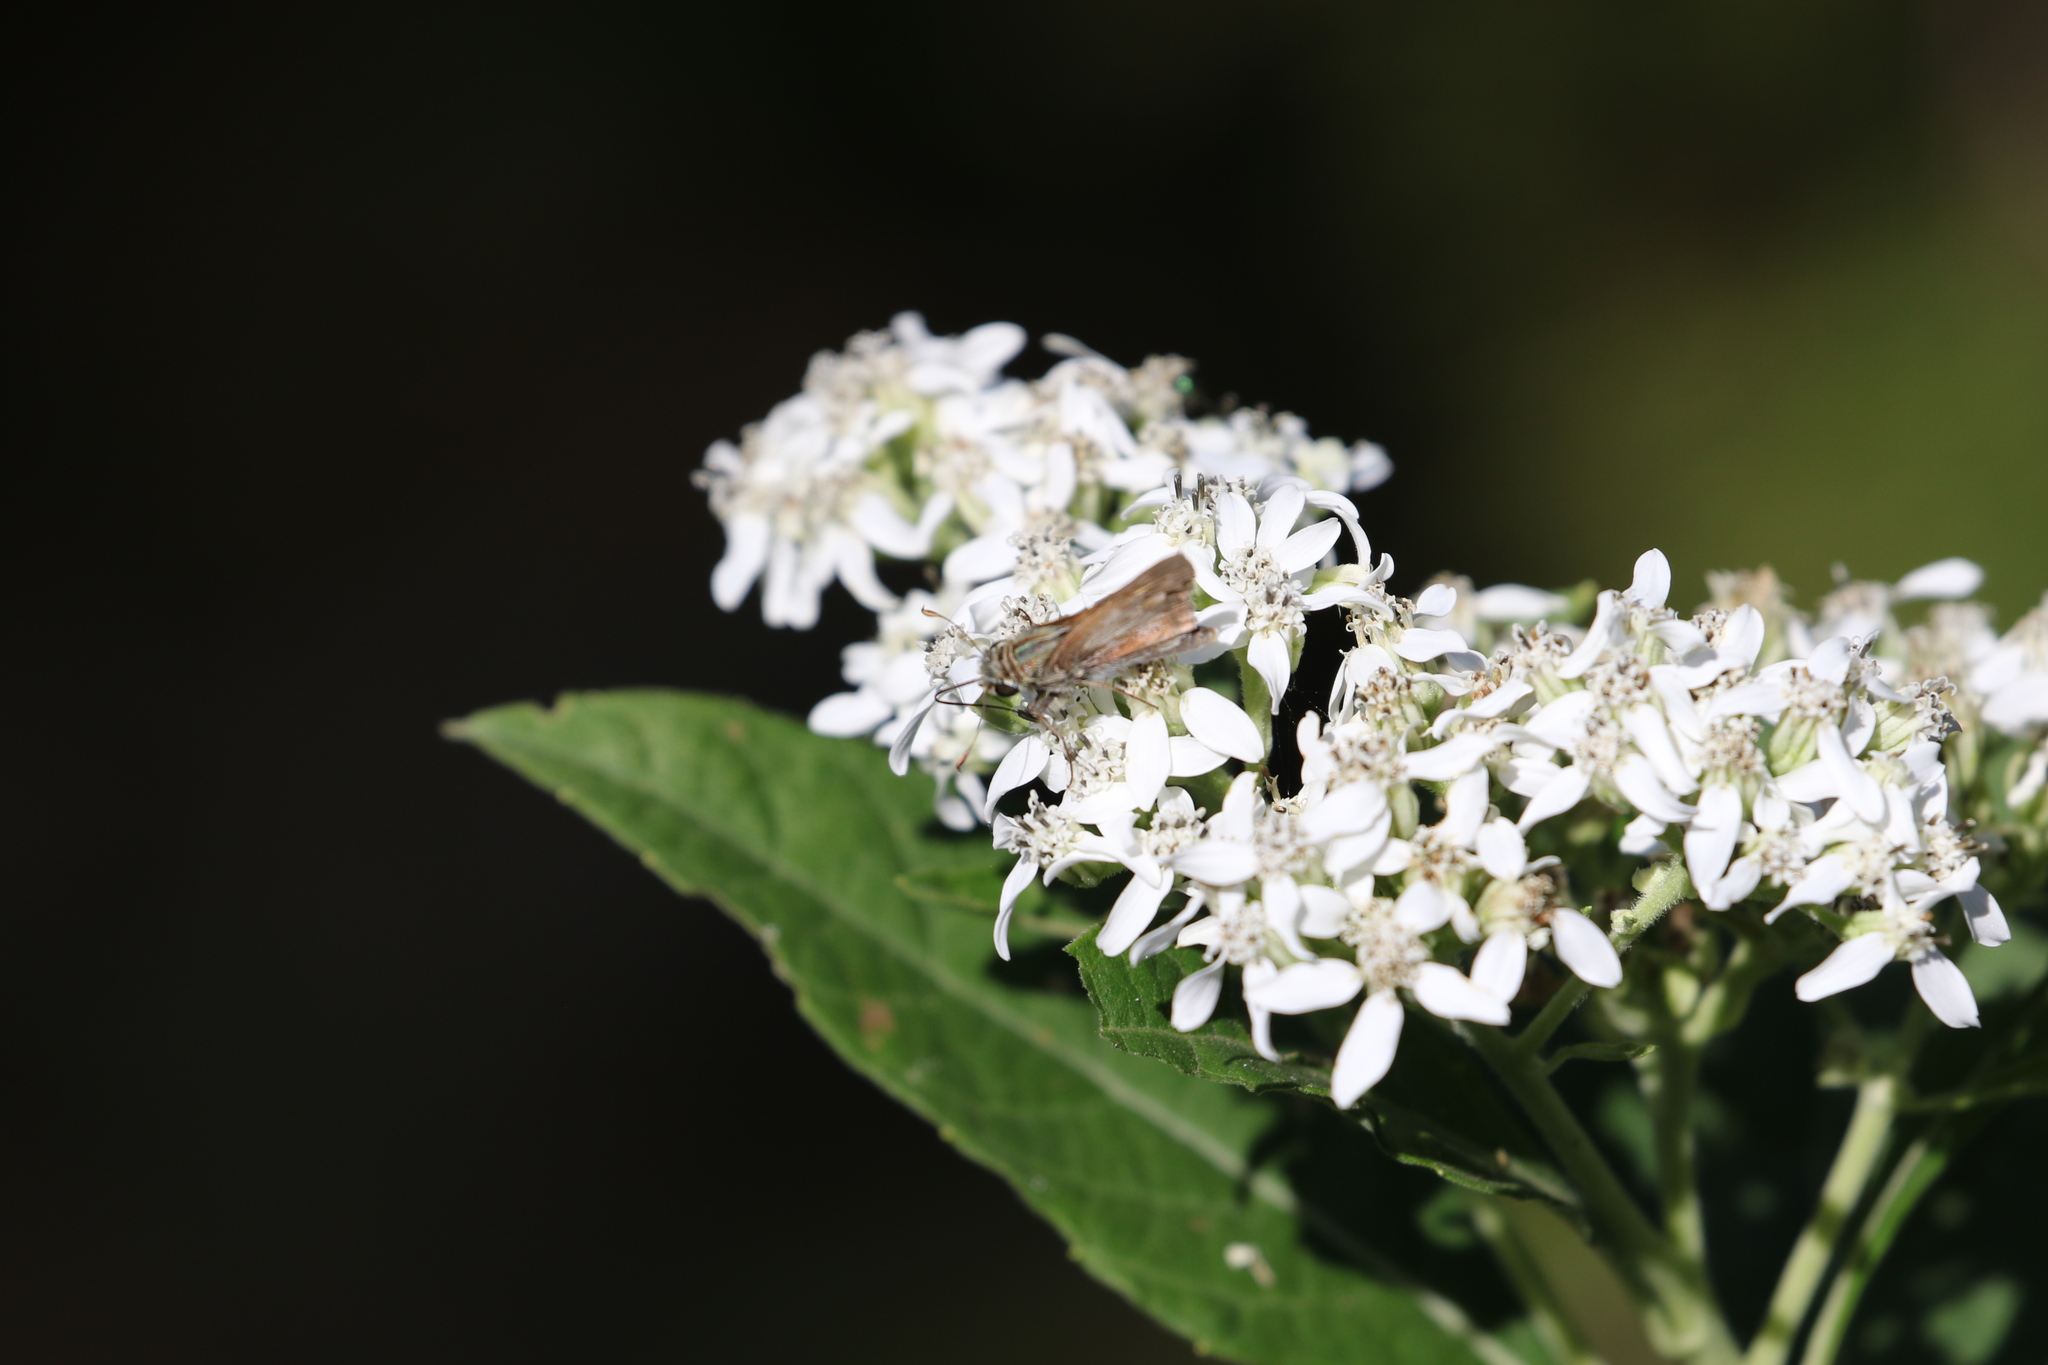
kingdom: Animalia
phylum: Arthropoda
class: Insecta
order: Lepidoptera
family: Hesperiidae
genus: Atalopedes
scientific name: Atalopedes
